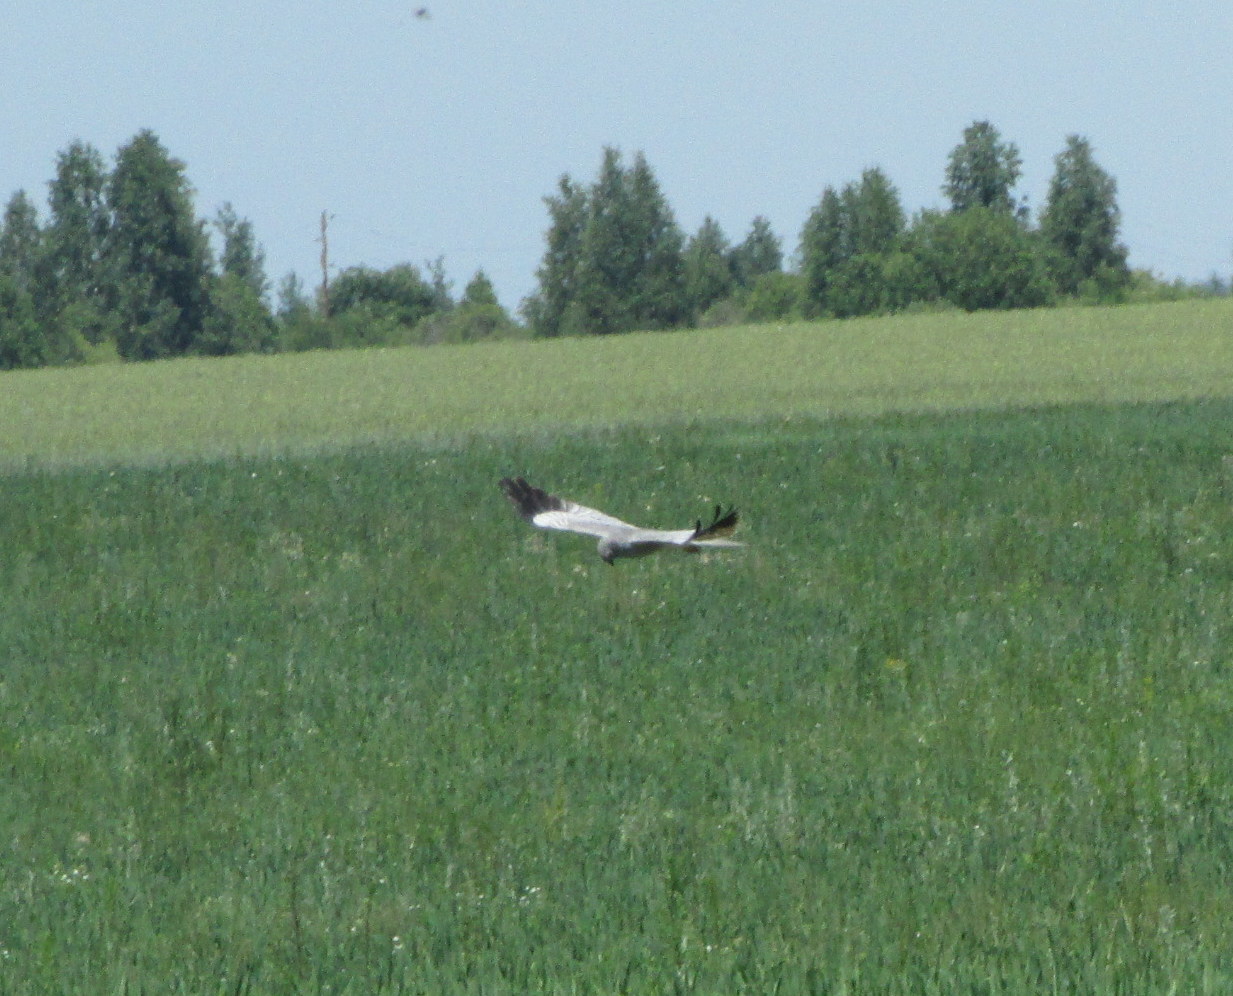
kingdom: Animalia
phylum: Chordata
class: Aves
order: Accipitriformes
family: Accipitridae
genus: Circus
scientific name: Circus pygargus
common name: Montagu's harrier
